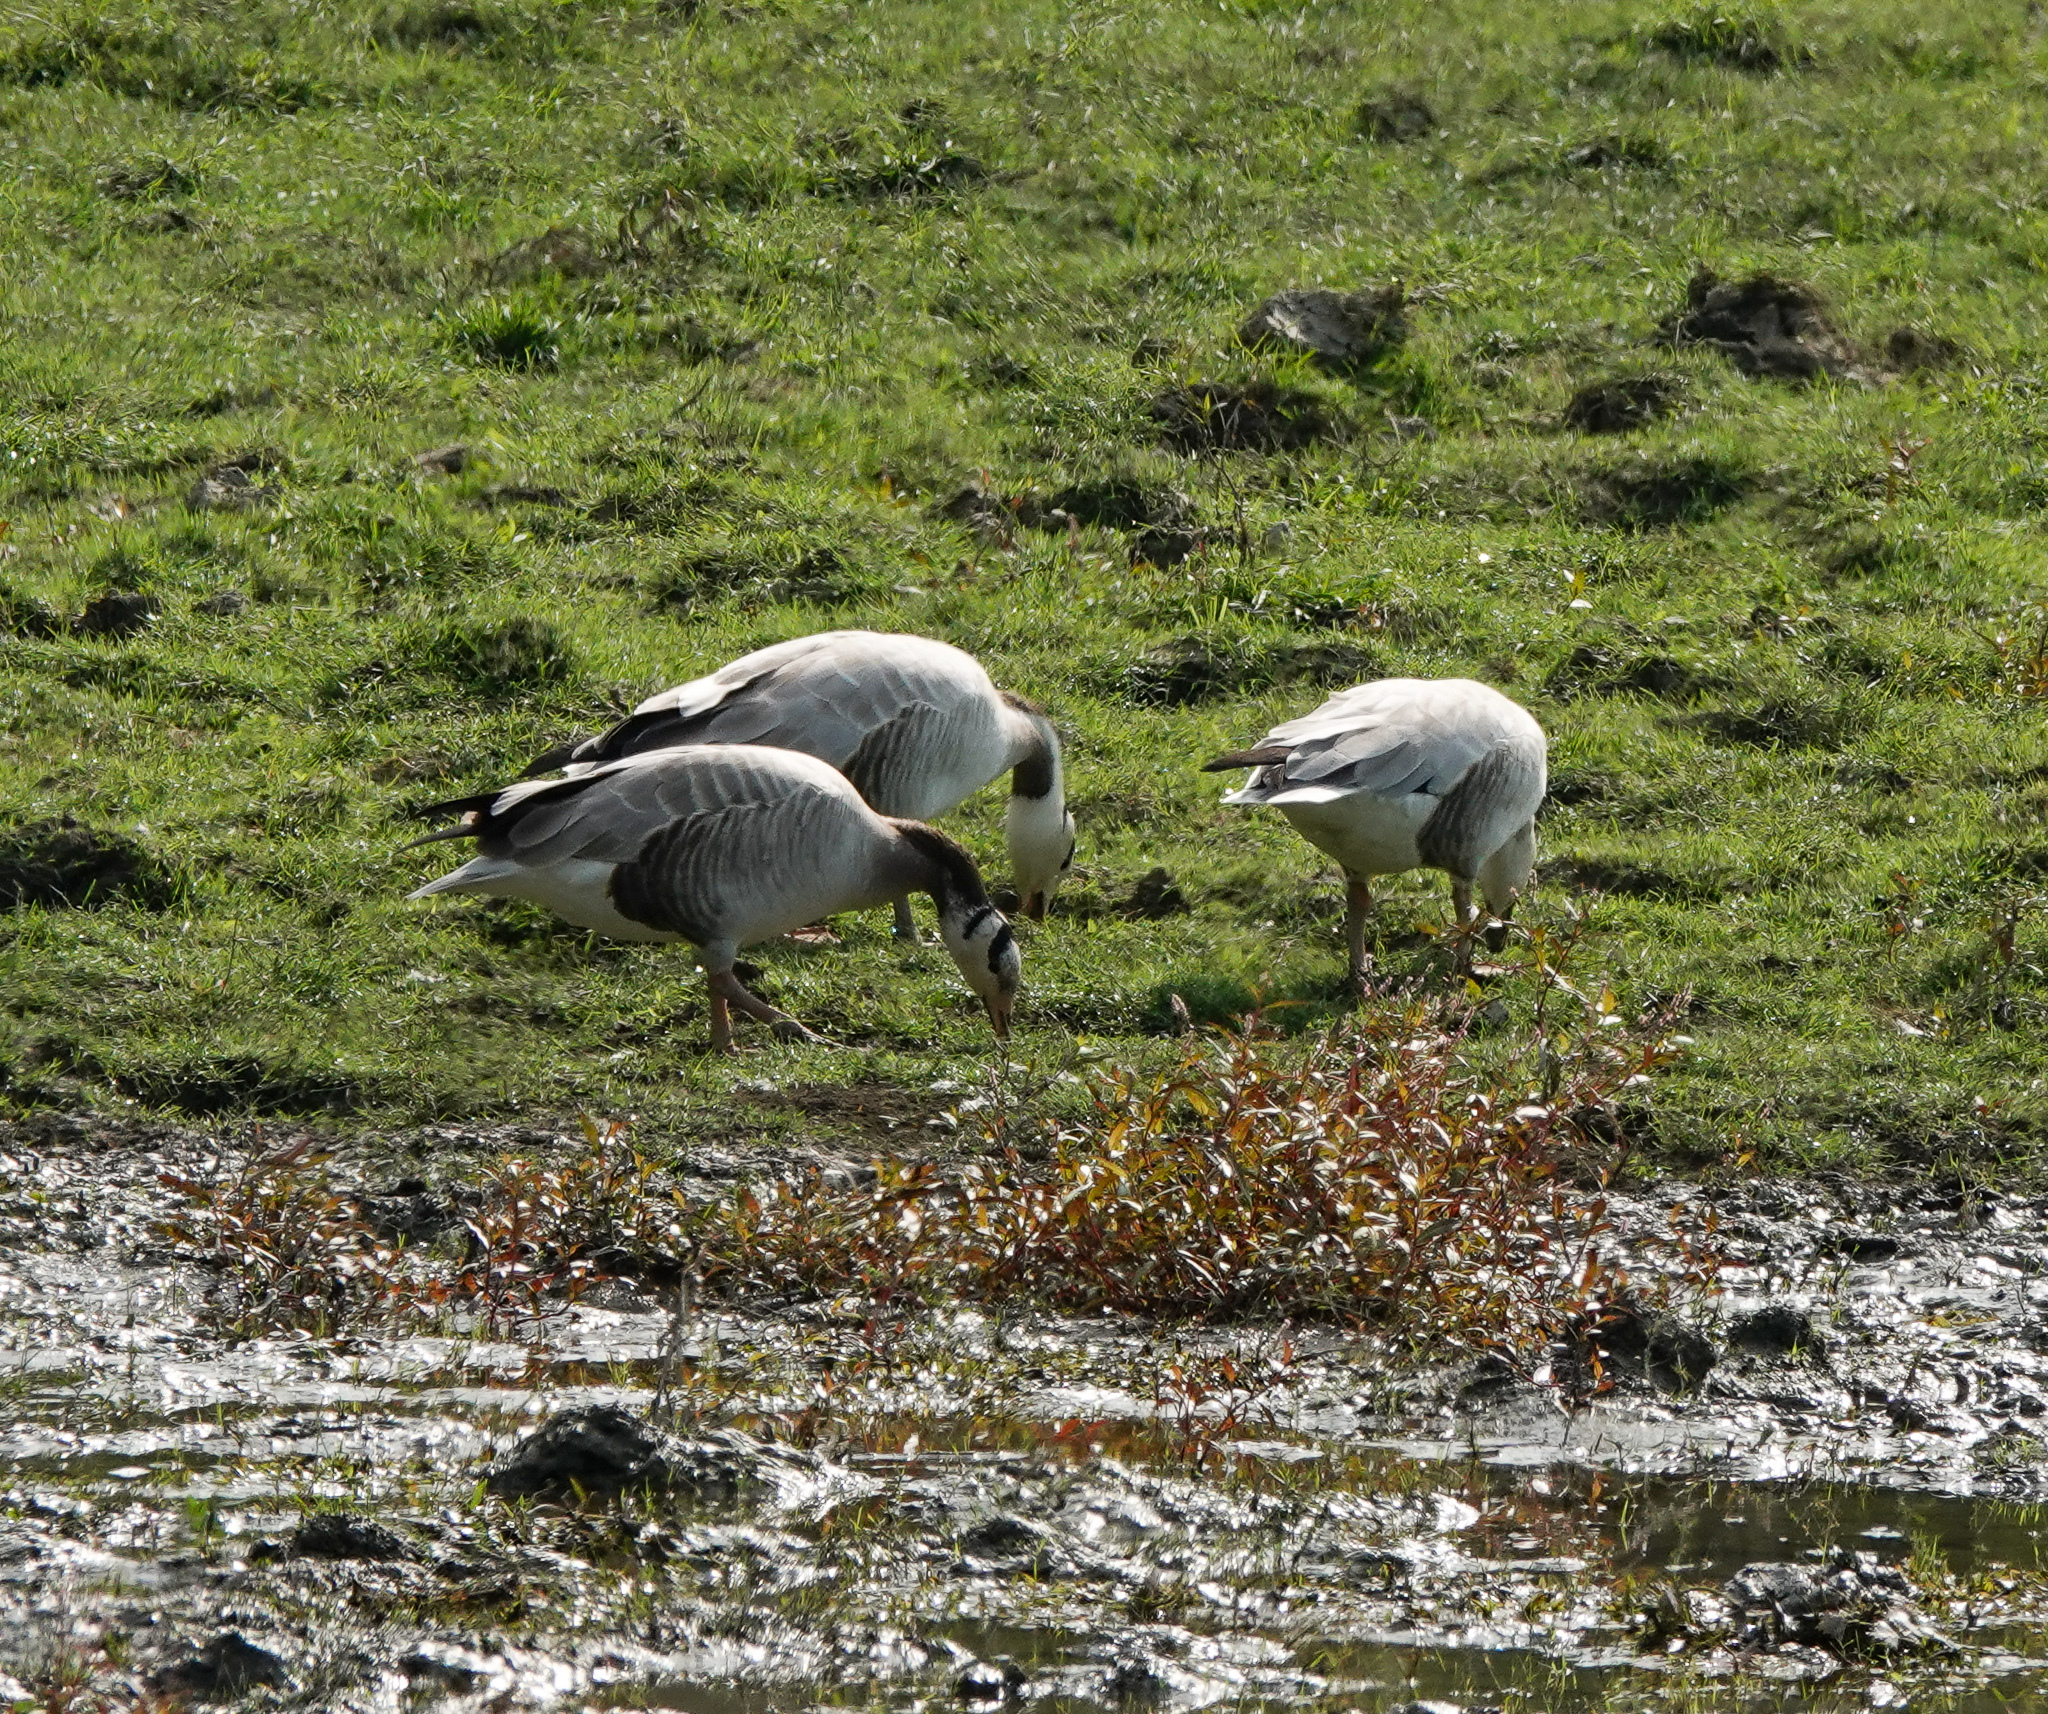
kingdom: Animalia
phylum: Chordata
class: Aves
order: Anseriformes
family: Anatidae
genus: Anser
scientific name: Anser indicus
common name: Bar-headed goose
